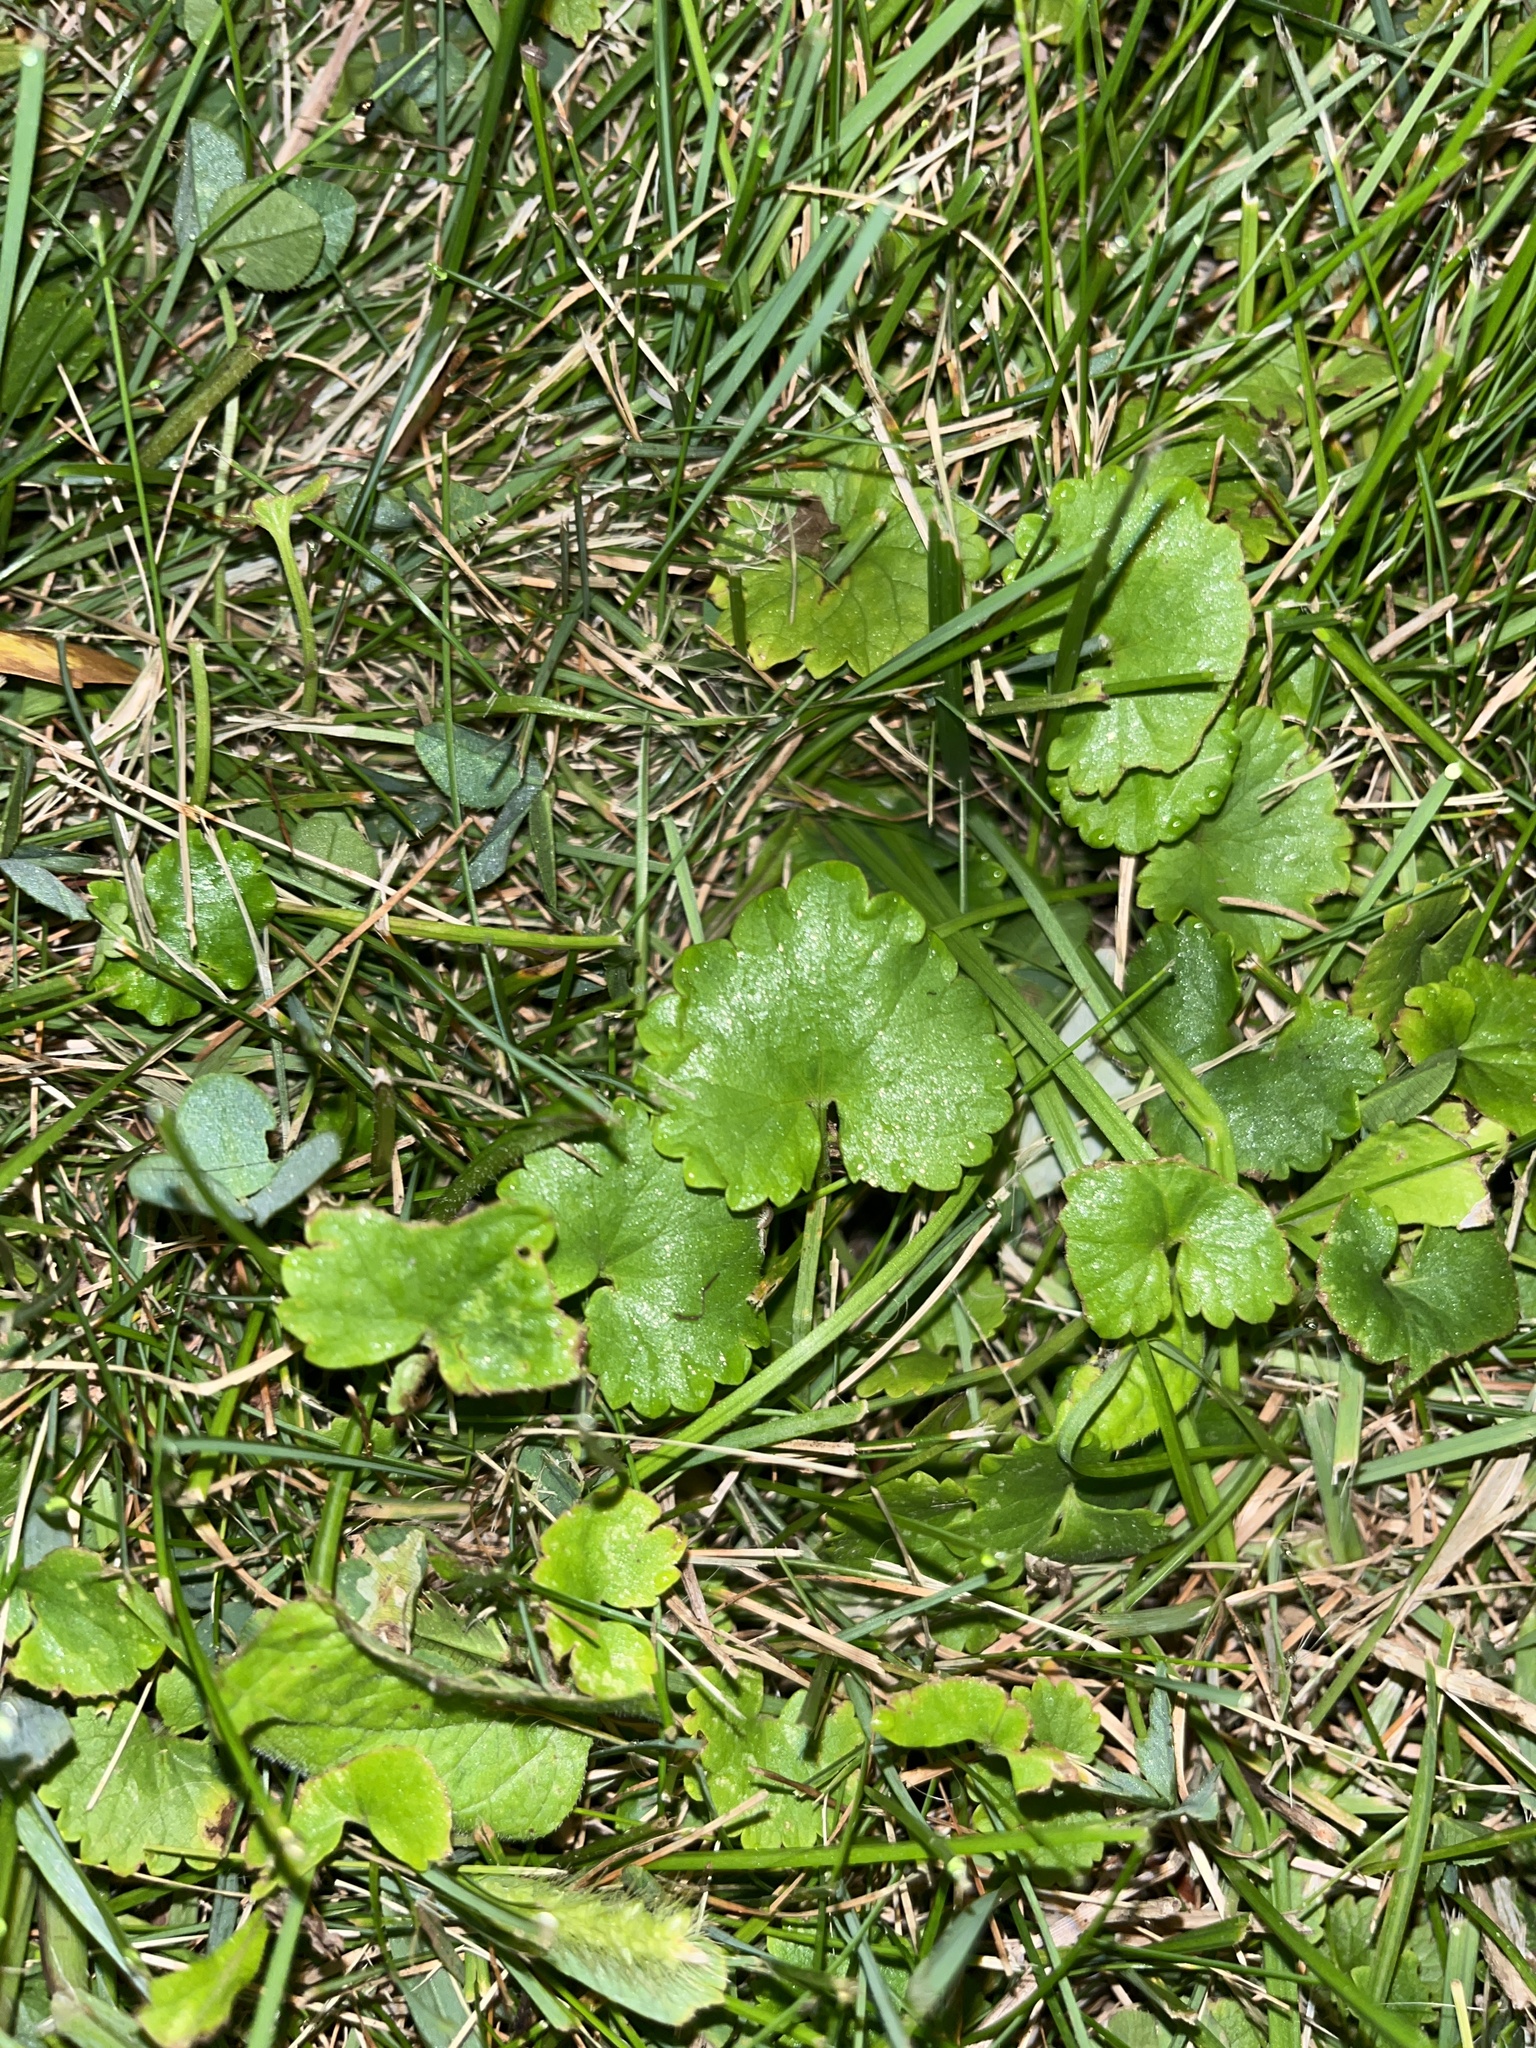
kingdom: Plantae
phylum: Tracheophyta
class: Magnoliopsida
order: Lamiales
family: Lamiaceae
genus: Glechoma
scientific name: Glechoma hederacea
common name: Ground ivy
